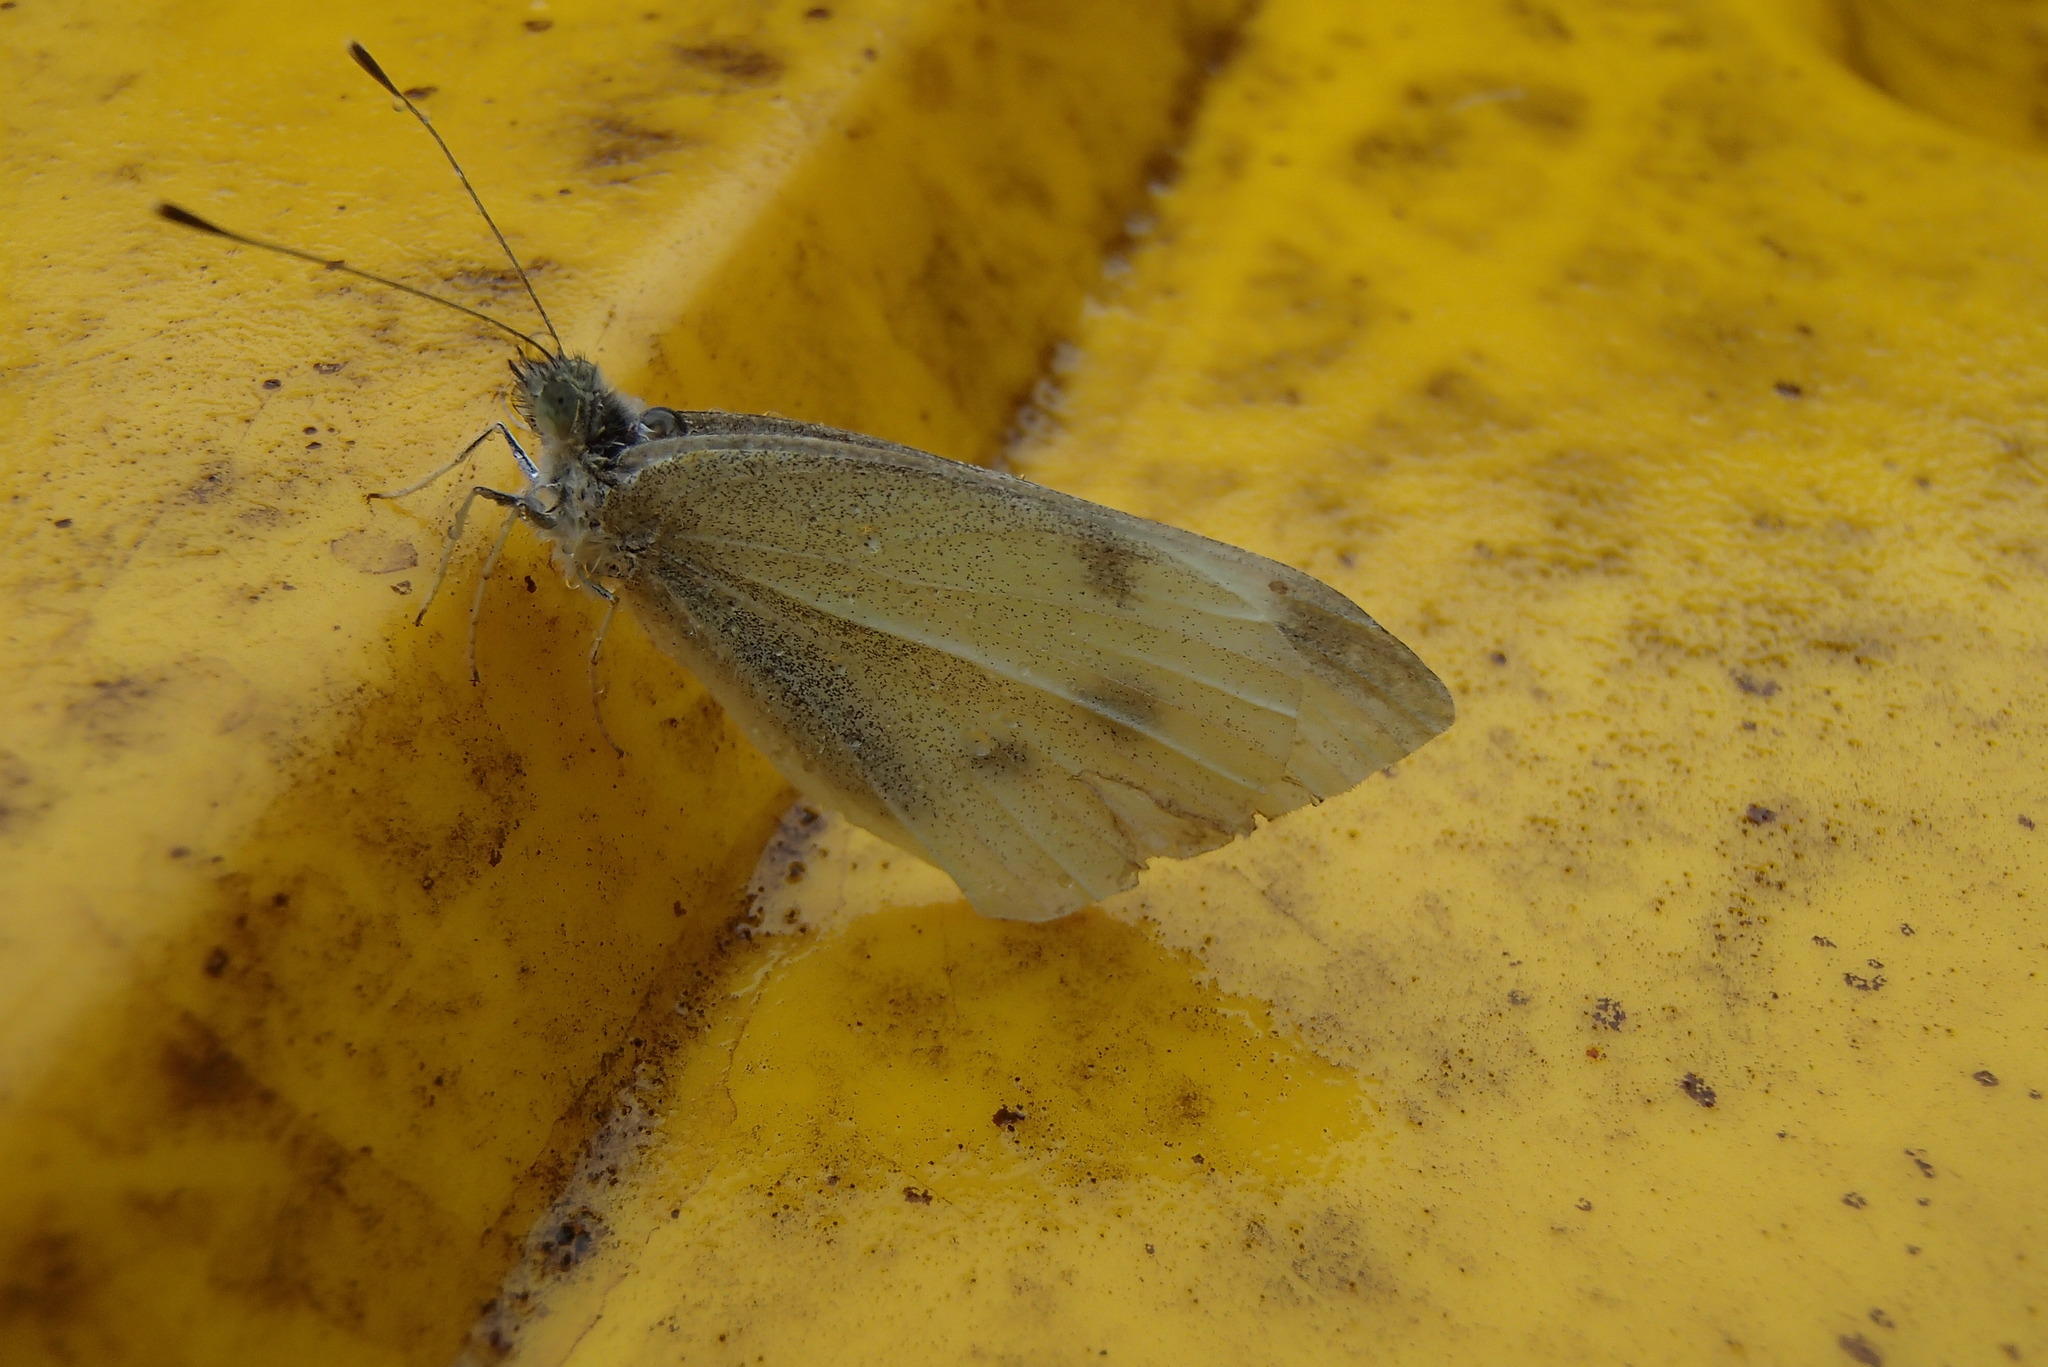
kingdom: Animalia
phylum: Arthropoda
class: Insecta
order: Lepidoptera
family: Pieridae
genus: Pieris
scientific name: Pieris rapae
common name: Small white
